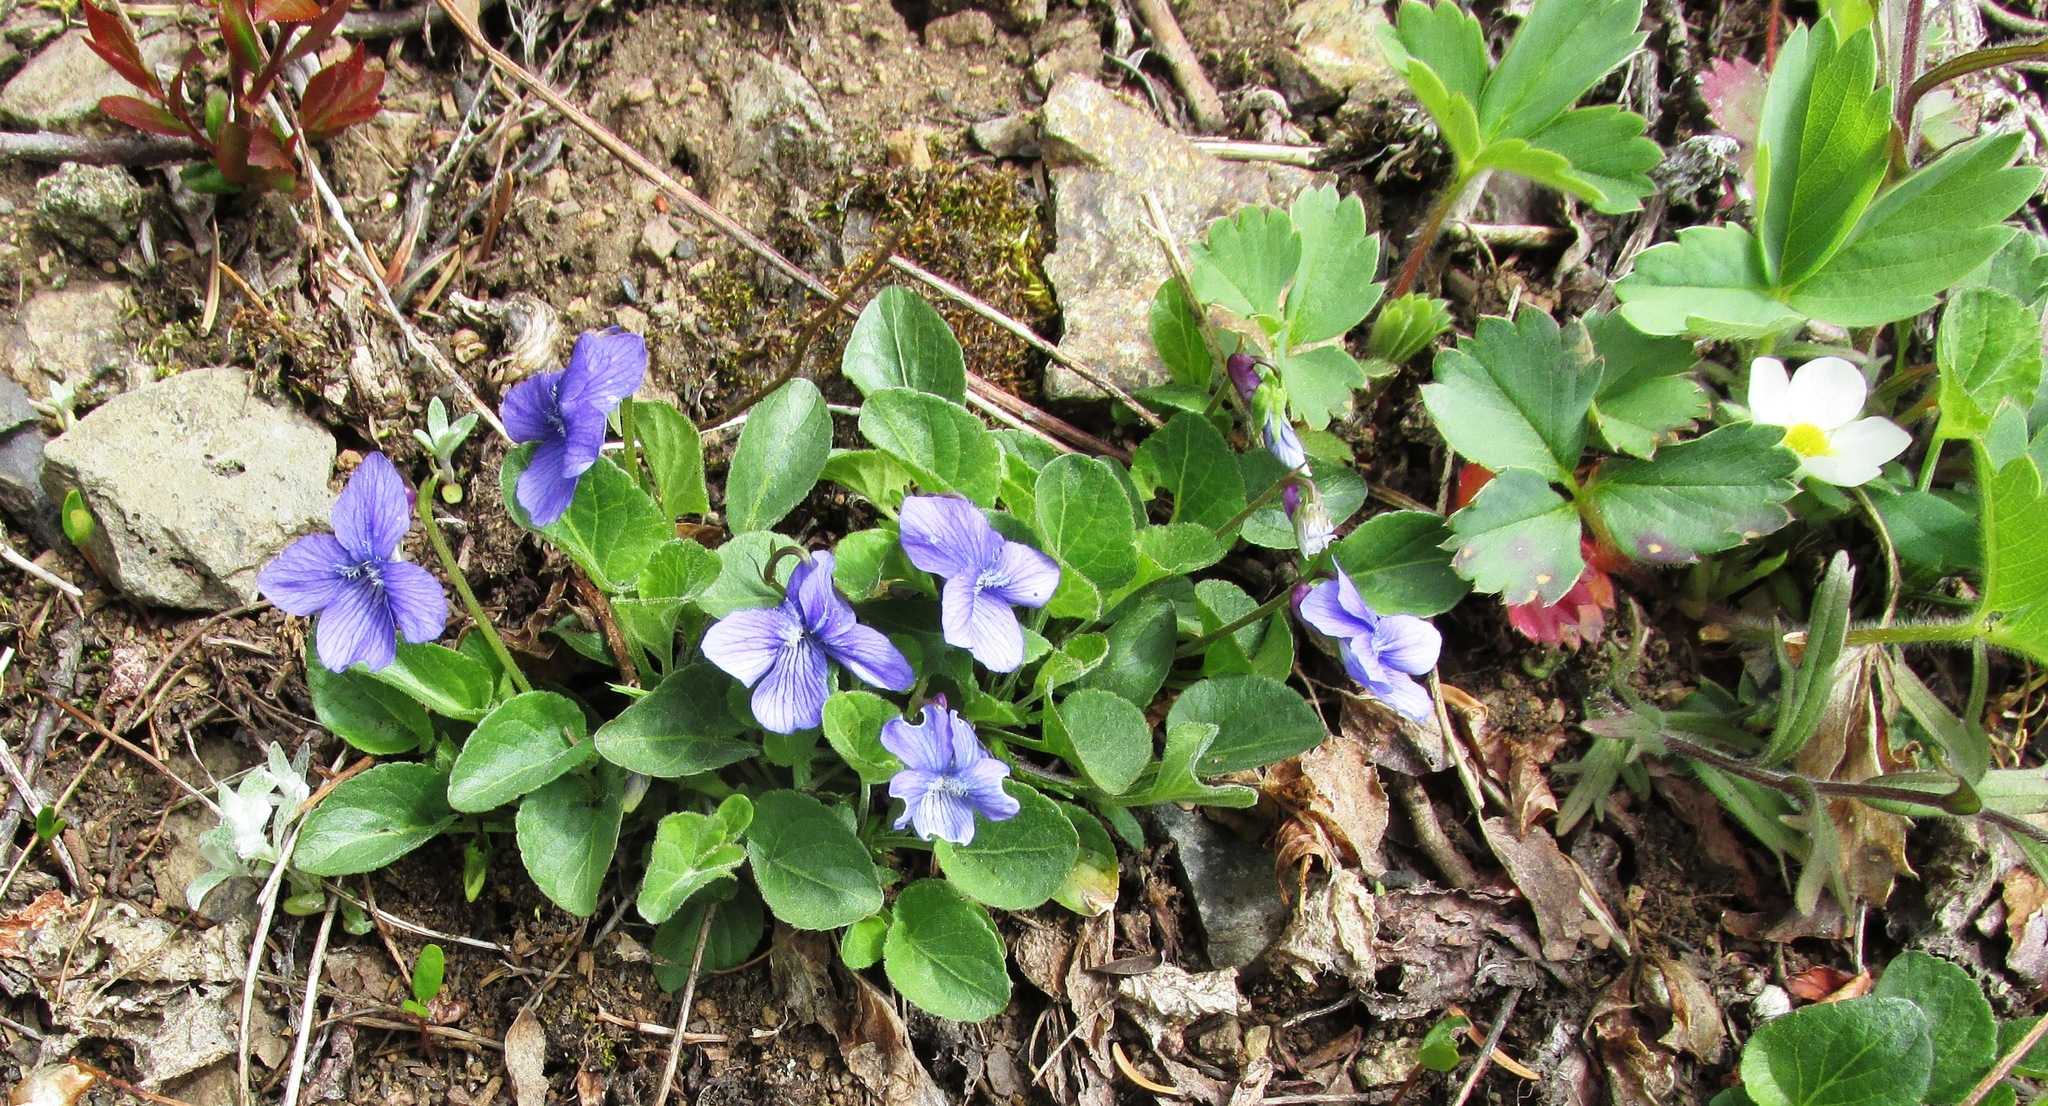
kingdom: Plantae
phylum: Tracheophyta
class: Magnoliopsida
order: Malpighiales
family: Violaceae
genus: Viola
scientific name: Viola adunca
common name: Sand violet
